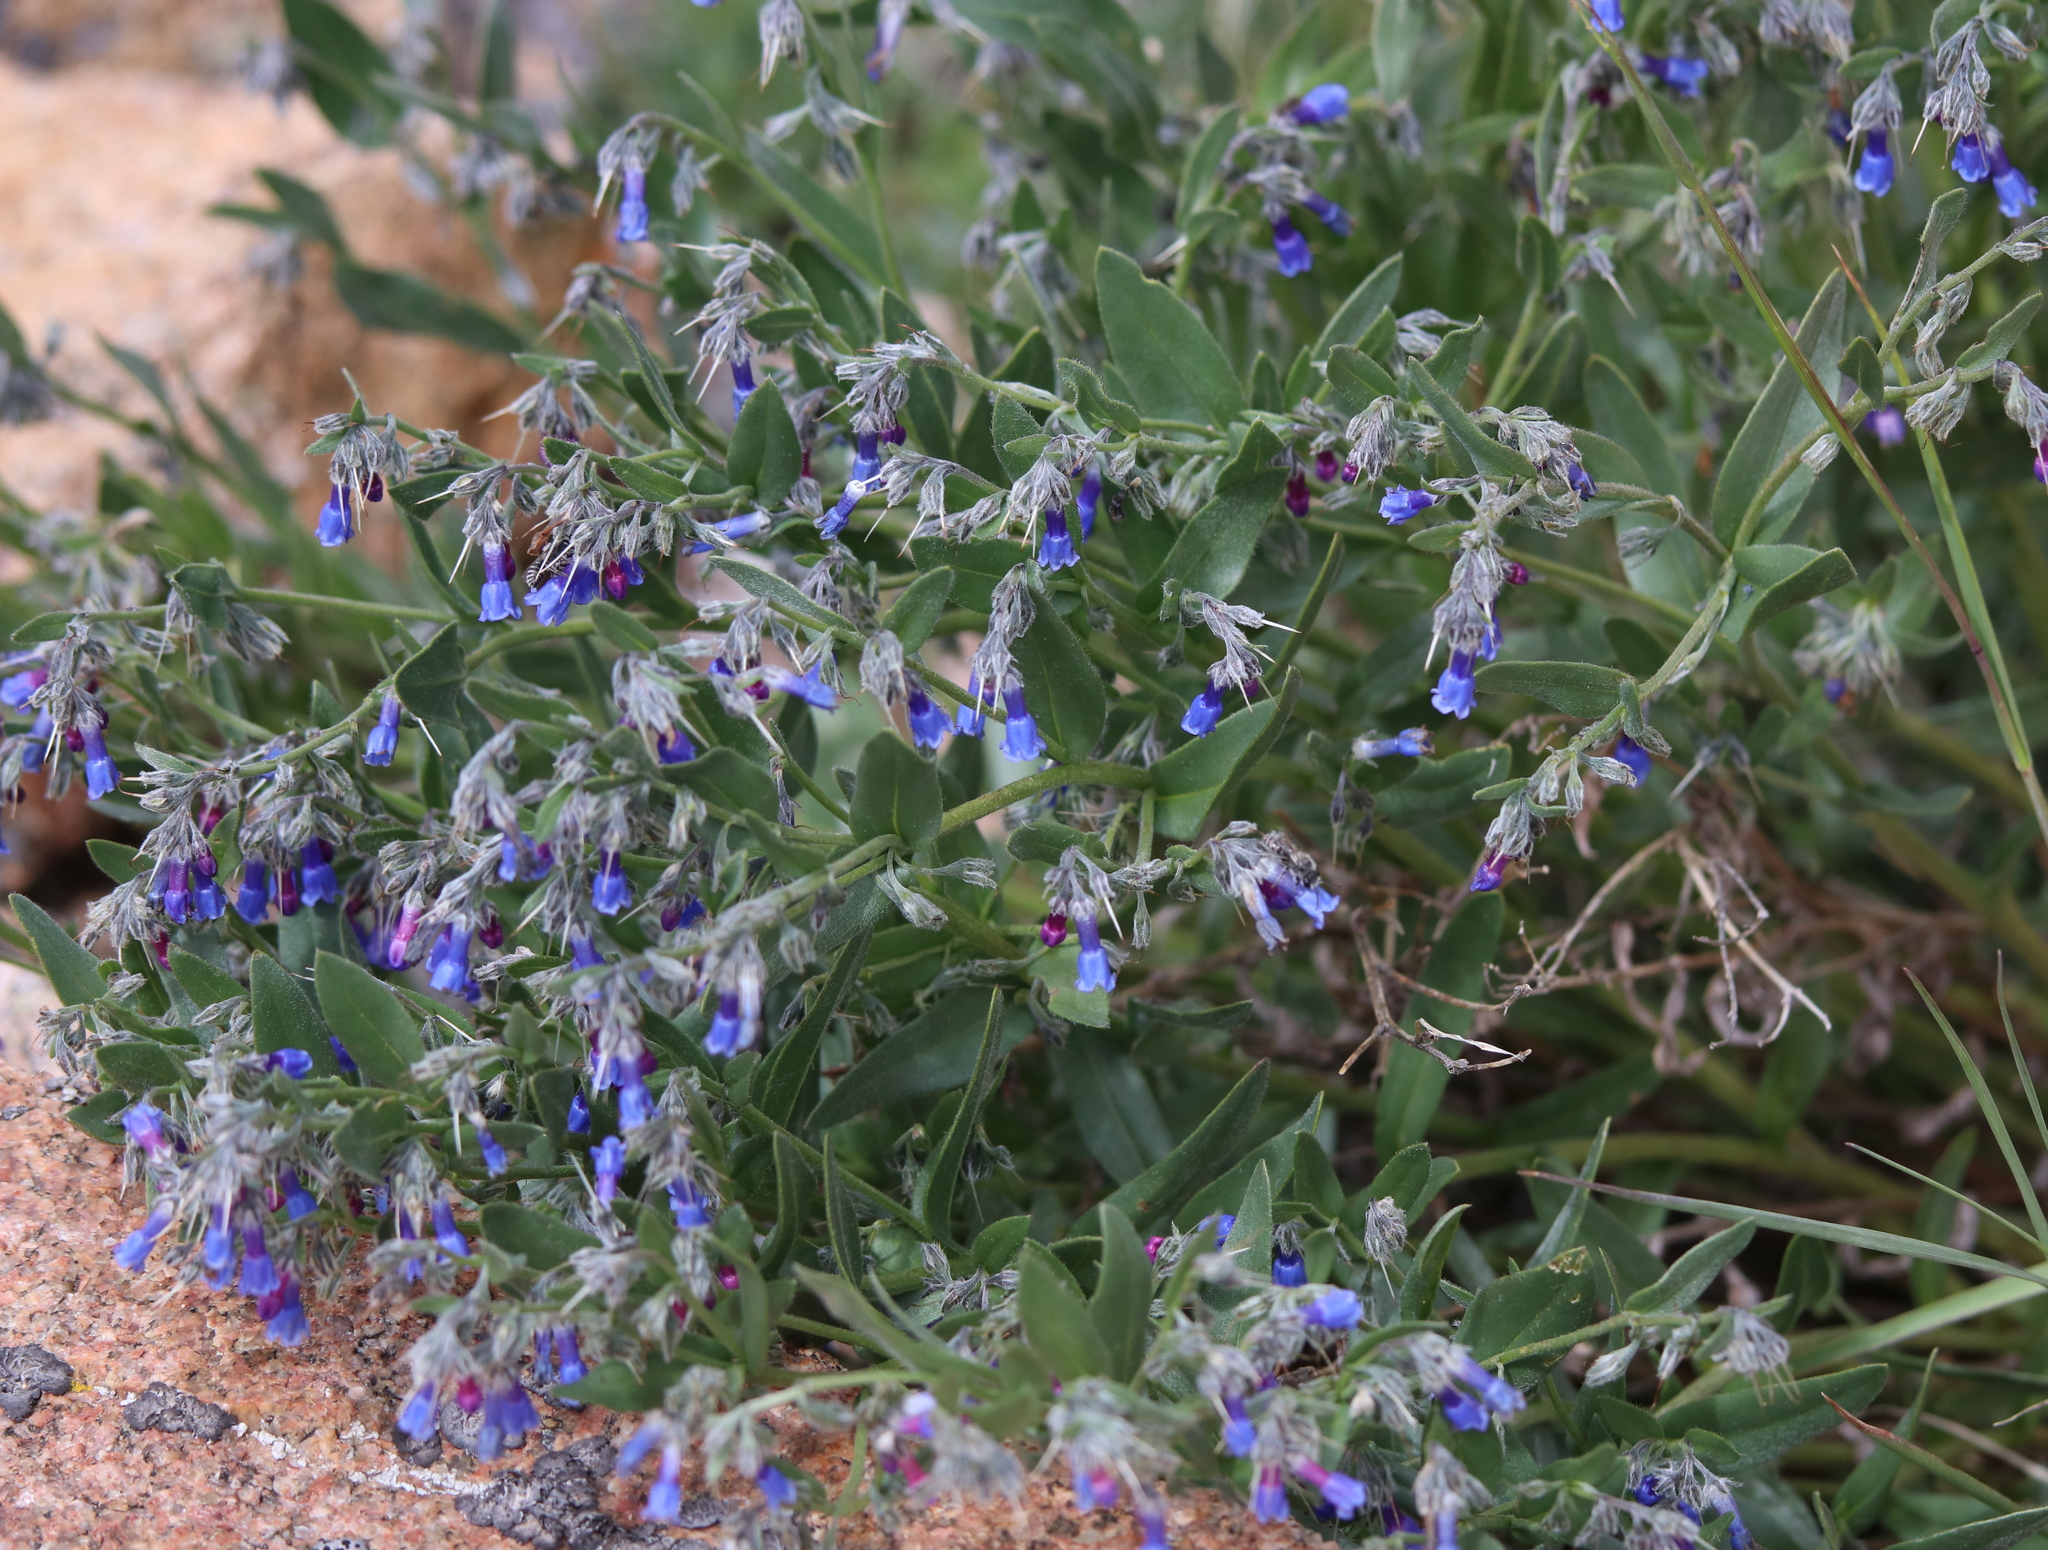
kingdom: Plantae
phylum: Tracheophyta
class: Magnoliopsida
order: Boraginales
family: Boraginaceae
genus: Mertensia
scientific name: Mertensia lanceolata
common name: Lance-leaved bluebells
